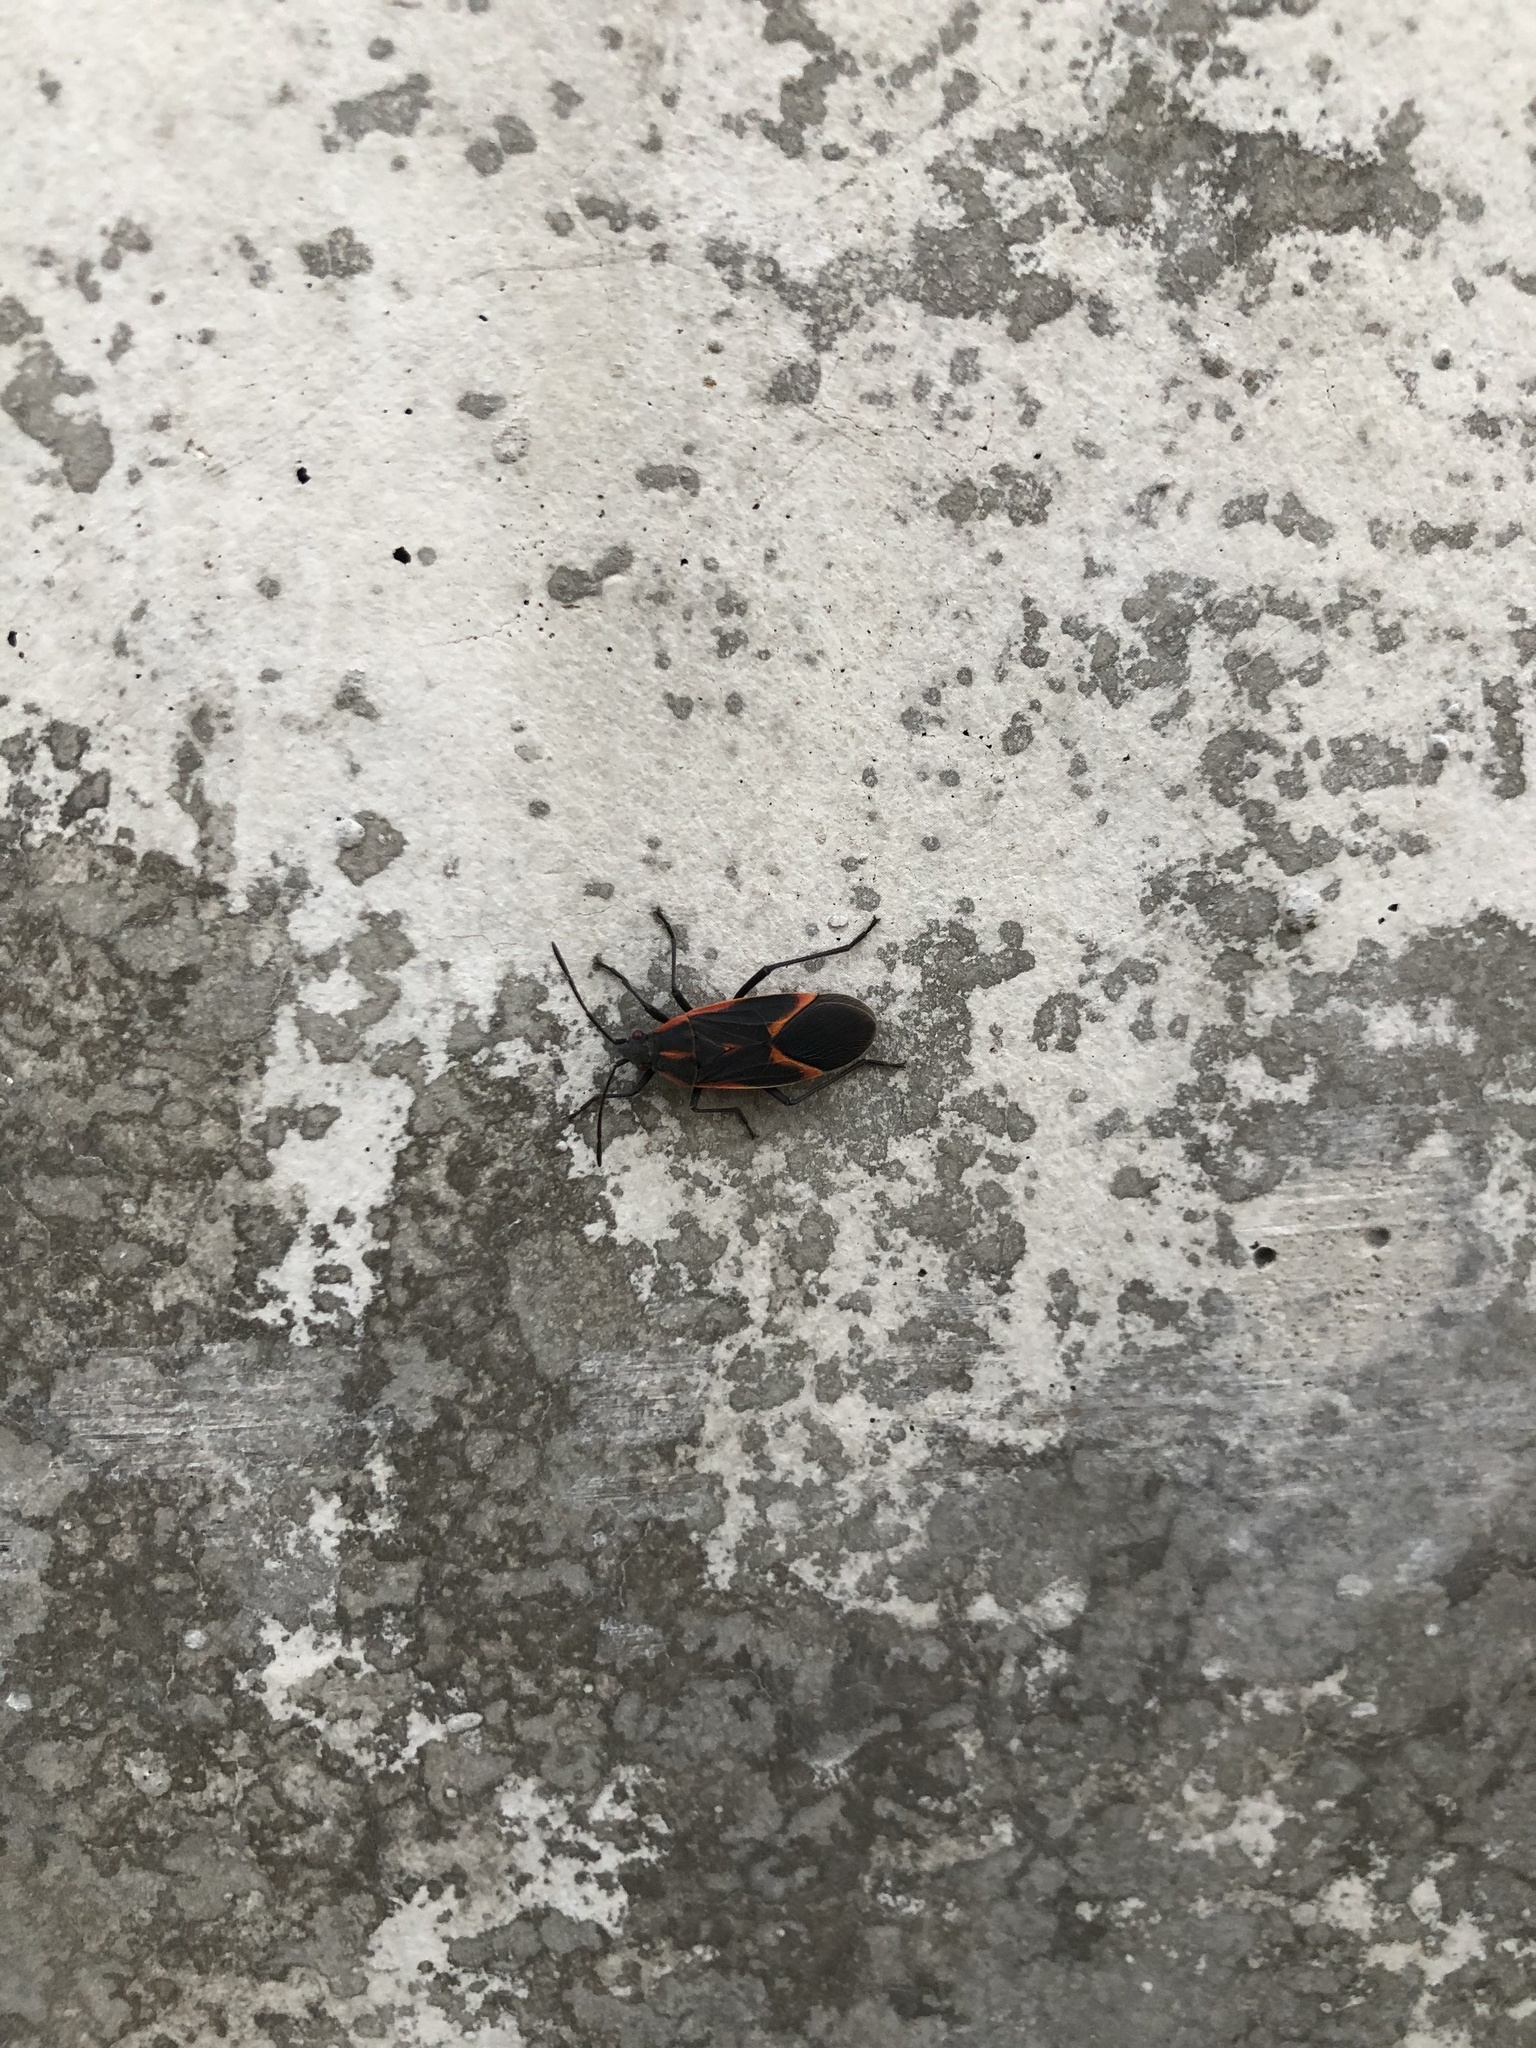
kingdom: Animalia
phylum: Arthropoda
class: Insecta
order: Hemiptera
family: Rhopalidae
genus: Boisea
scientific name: Boisea trivittata
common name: Boxelder bug
